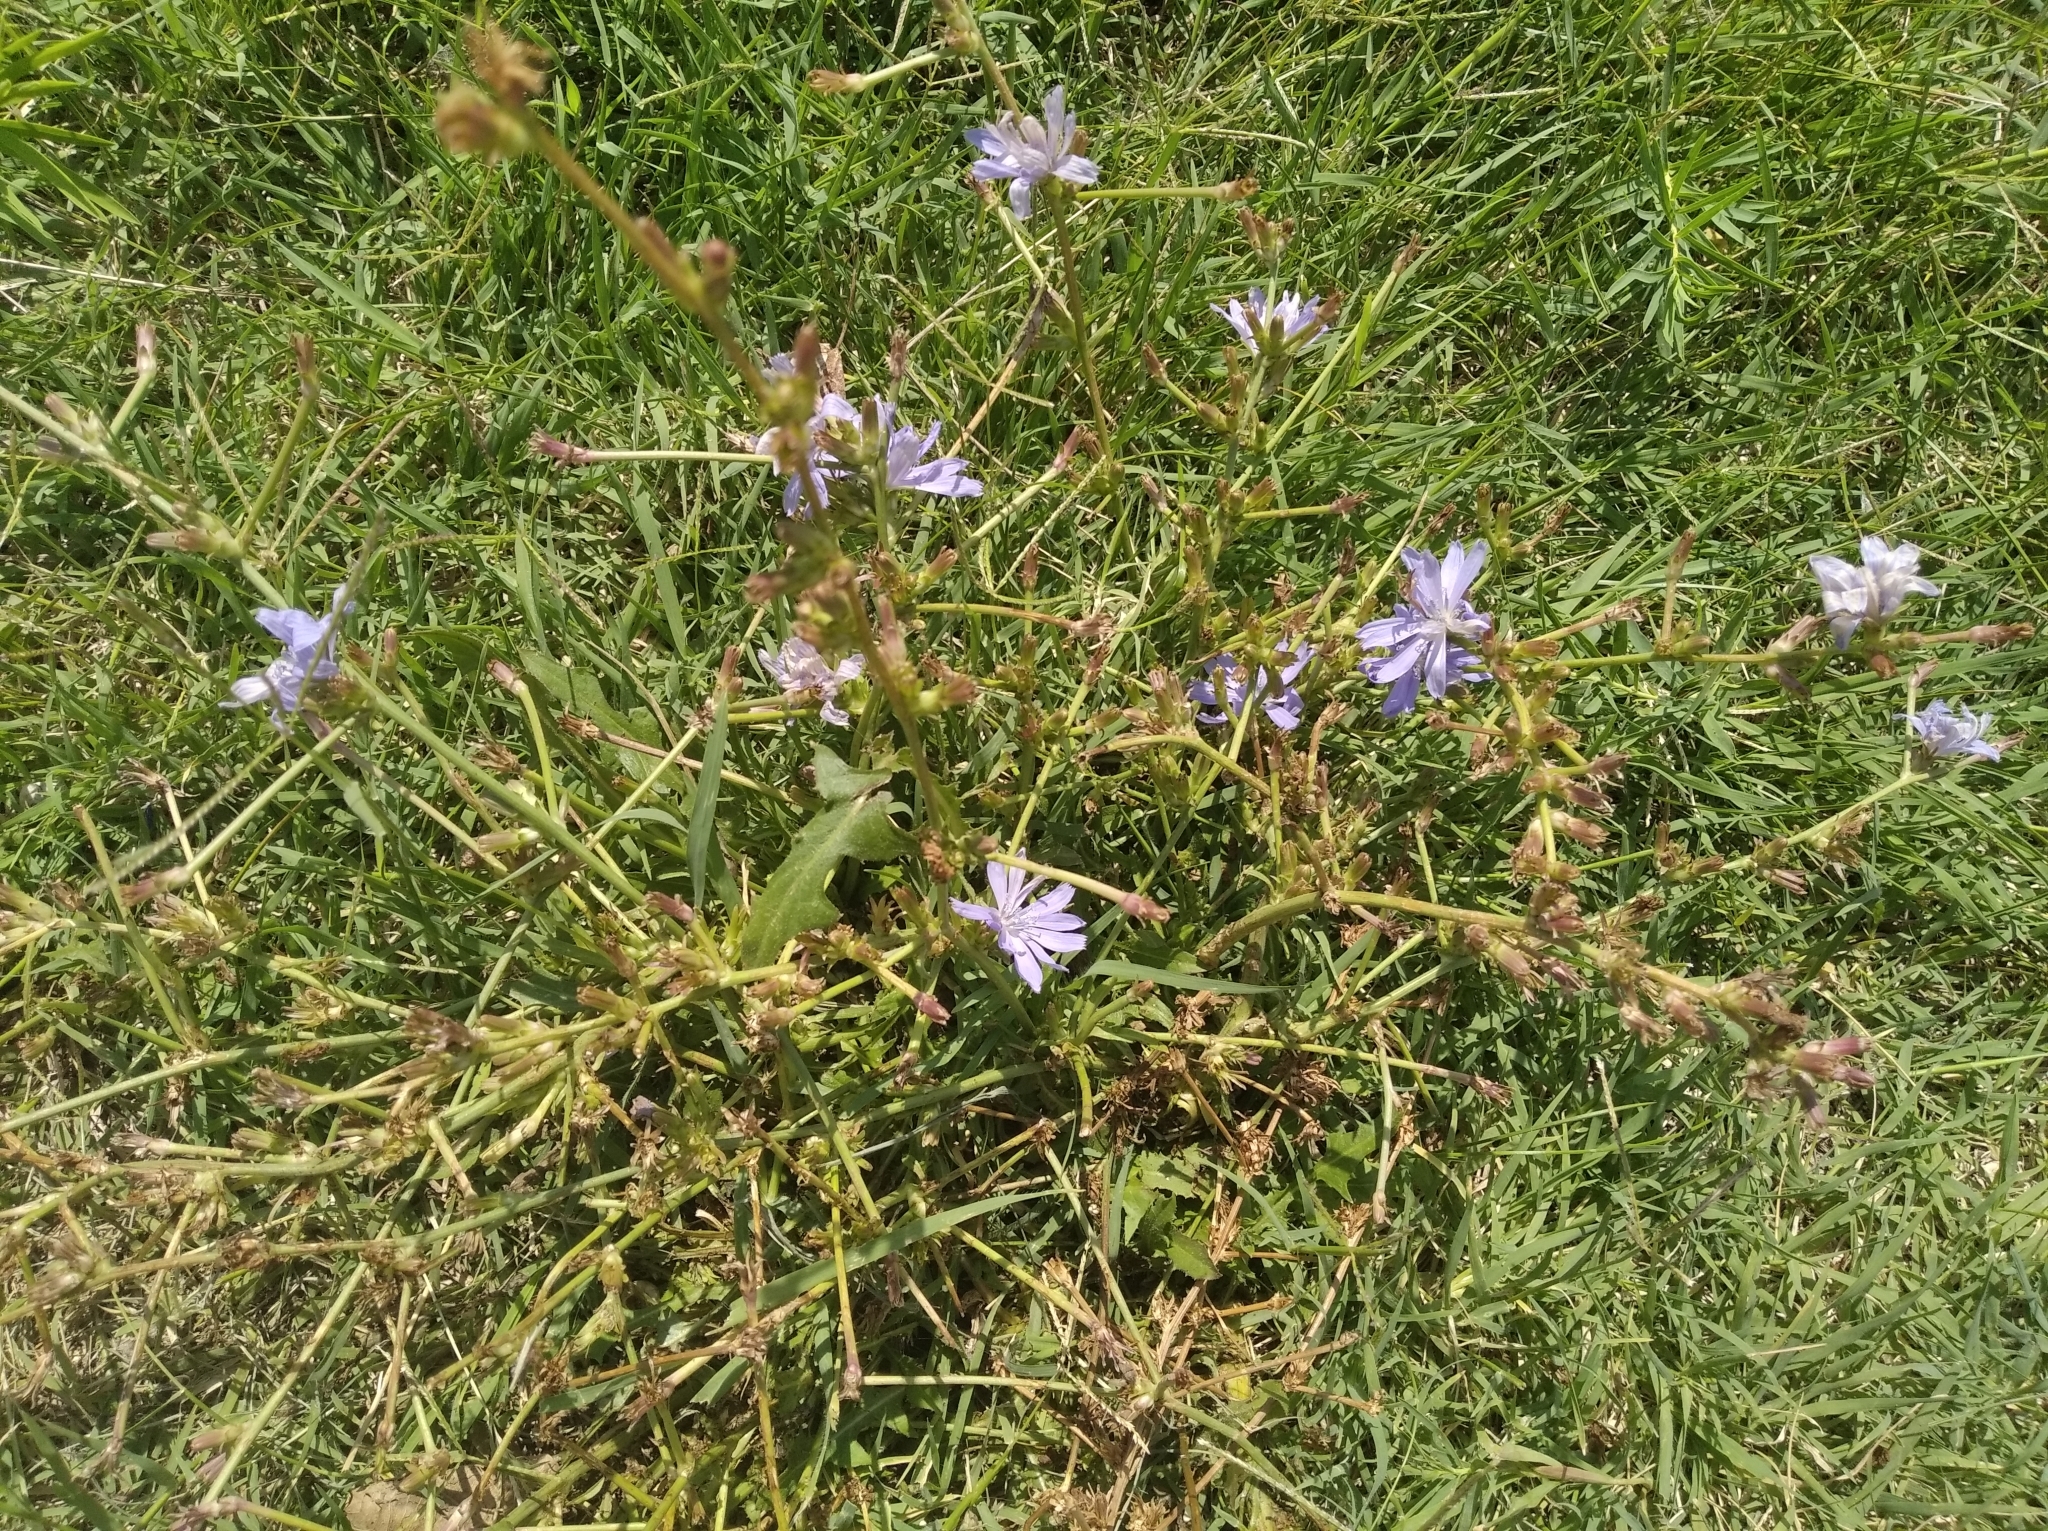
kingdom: Plantae
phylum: Tracheophyta
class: Magnoliopsida
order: Asterales
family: Asteraceae
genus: Cichorium
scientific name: Cichorium intybus
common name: Chicory
